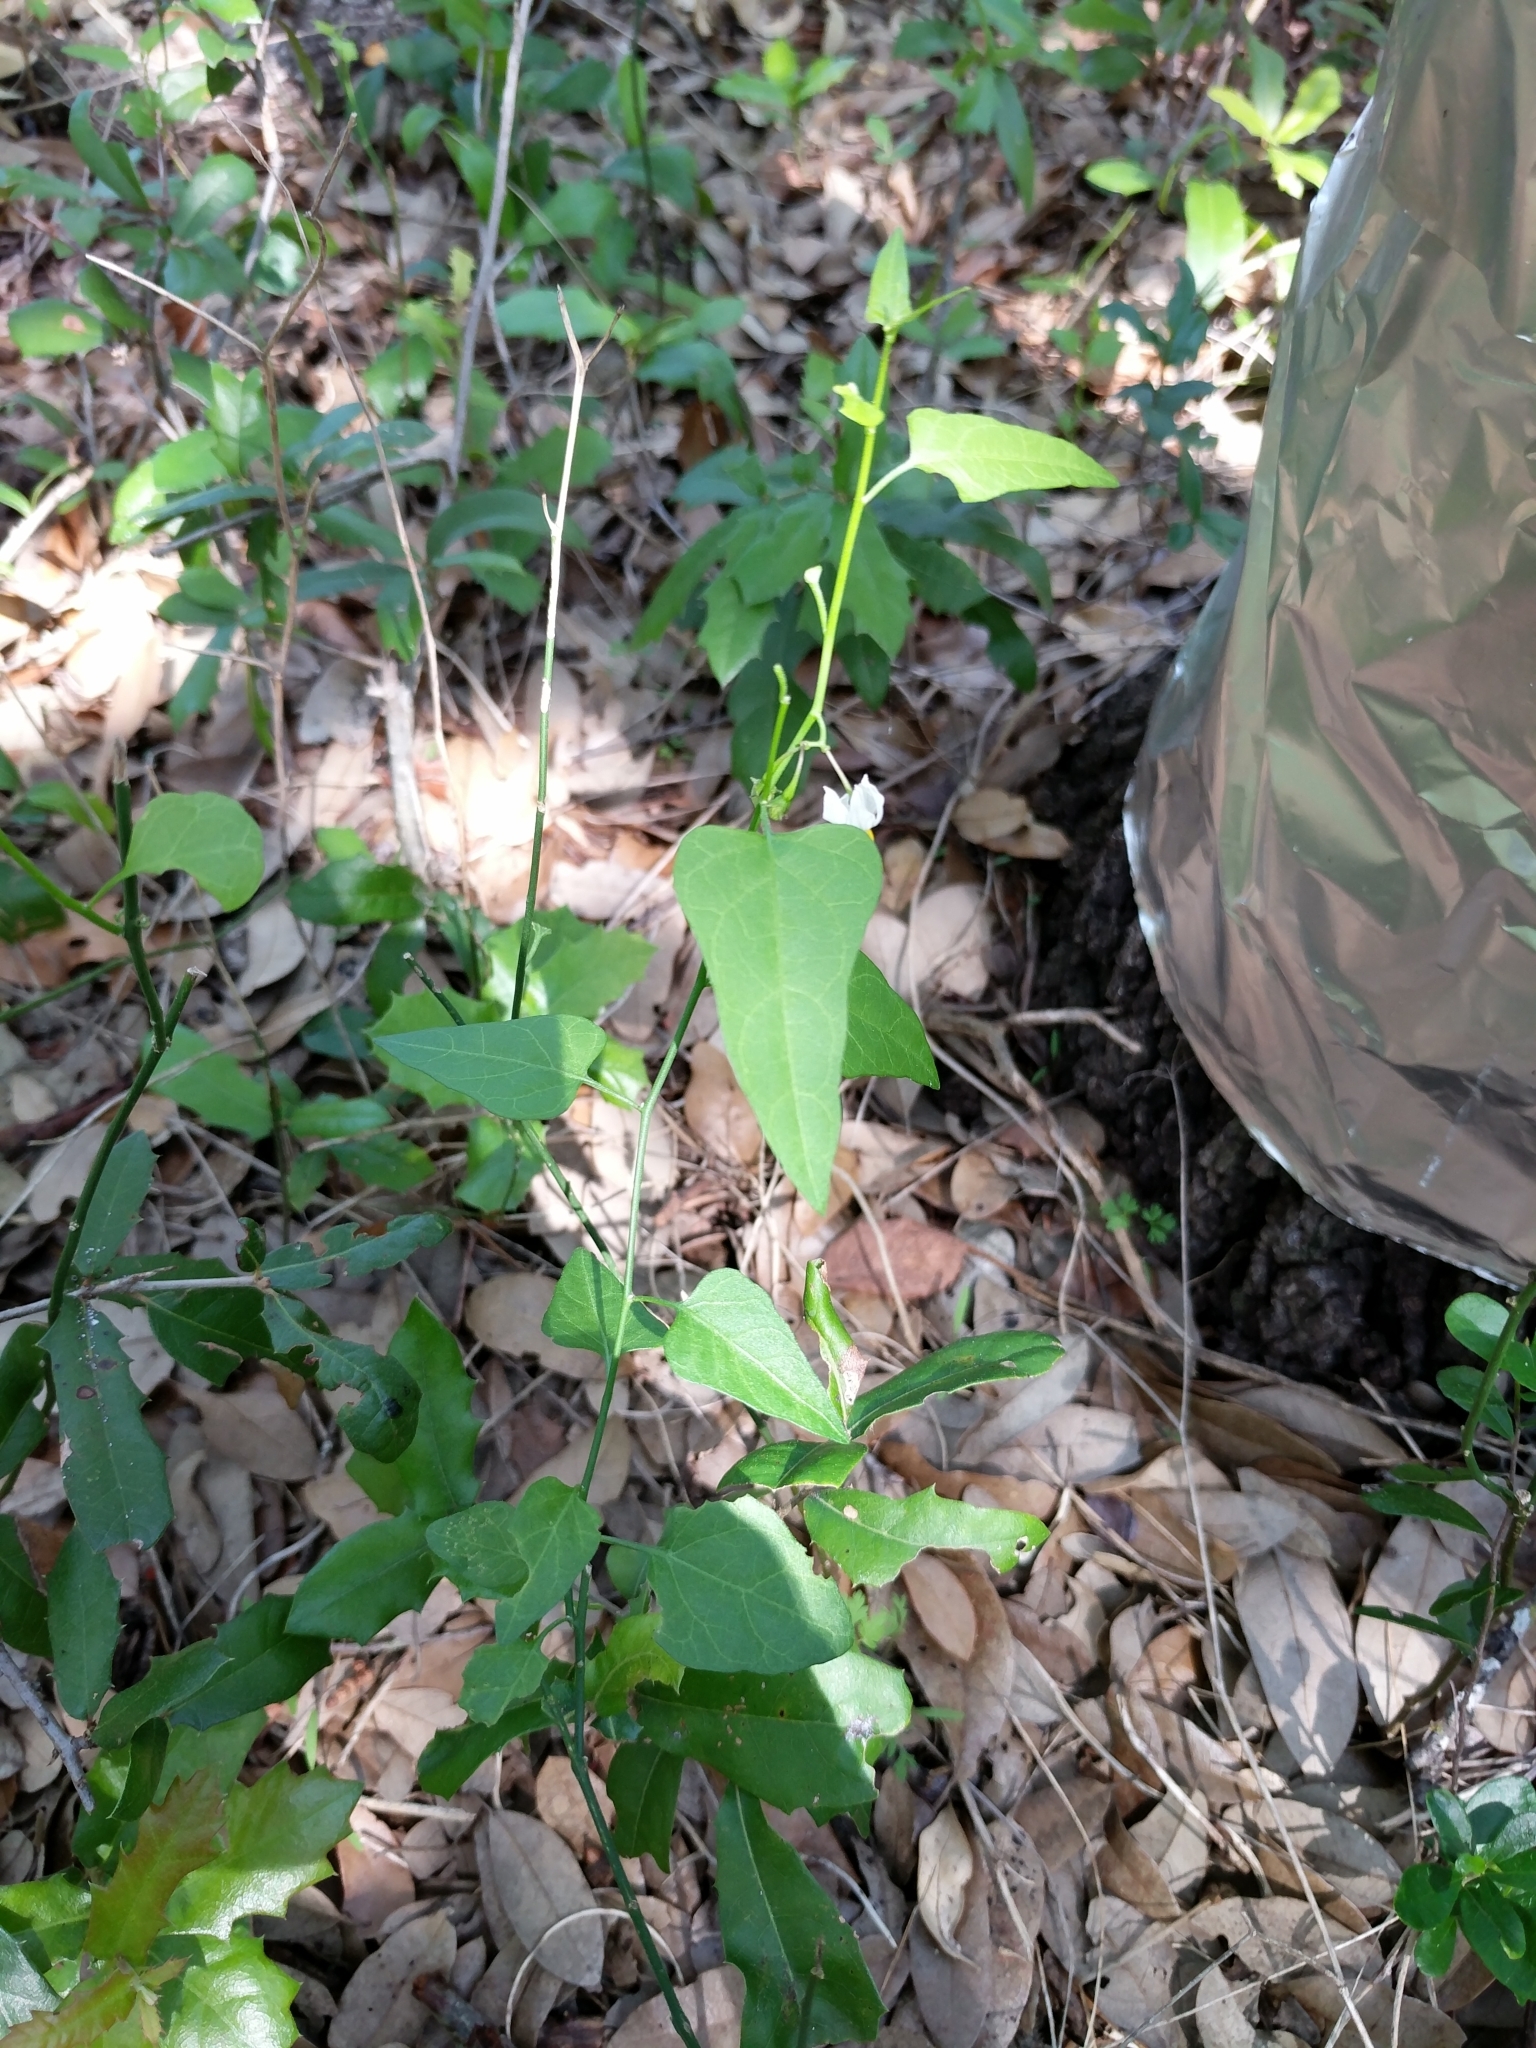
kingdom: Plantae
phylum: Tracheophyta
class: Magnoliopsida
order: Solanales
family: Solanaceae
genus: Solanum
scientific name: Solanum triquetrum
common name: Texas nightshade
